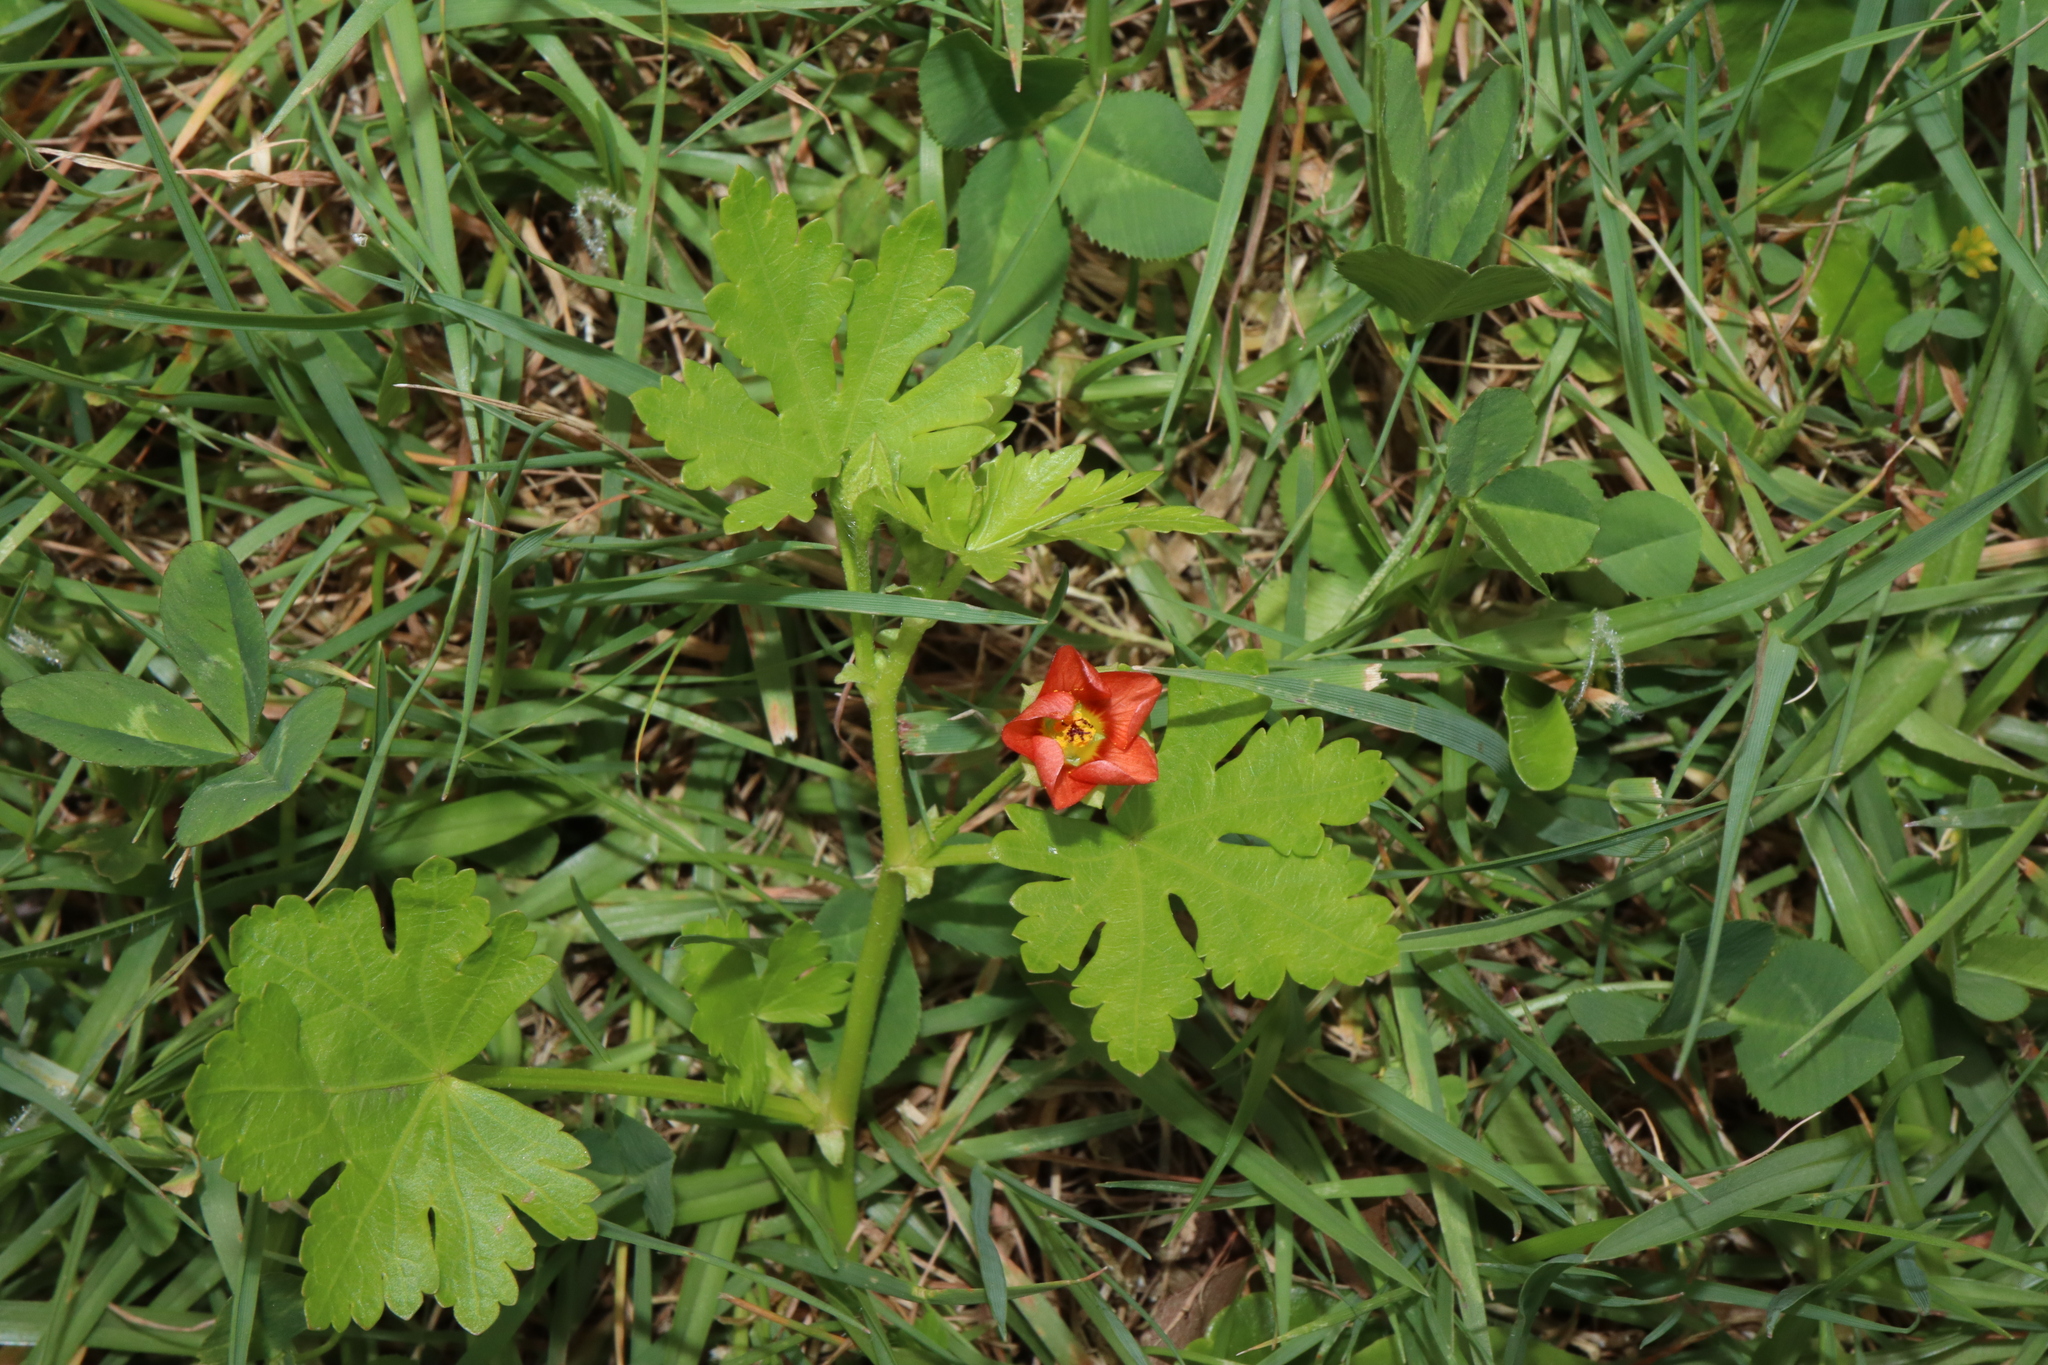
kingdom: Plantae
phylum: Tracheophyta
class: Magnoliopsida
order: Malvales
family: Malvaceae
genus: Modiola
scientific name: Modiola caroliniana
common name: Carolina bristlemallow
